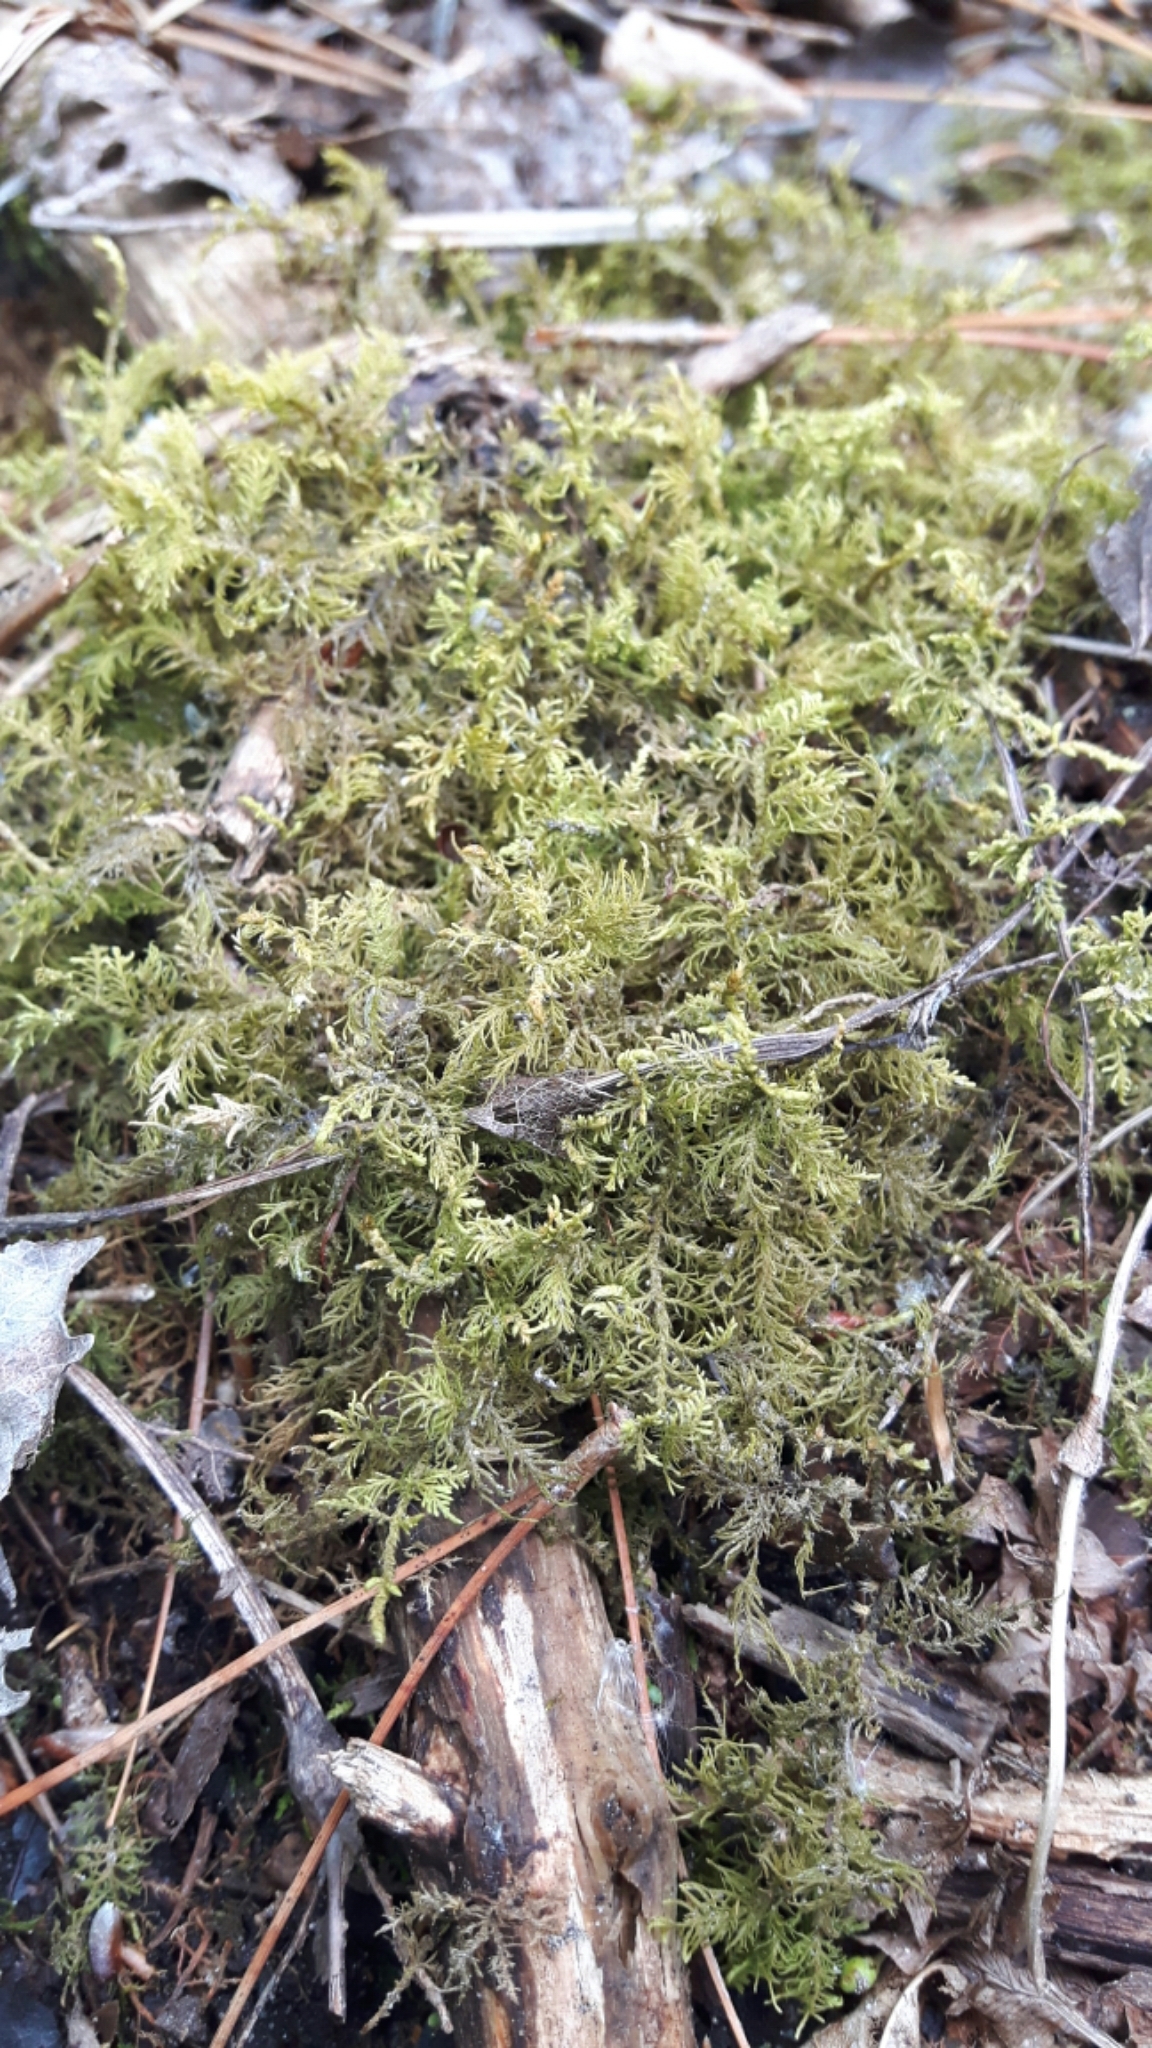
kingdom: Plantae
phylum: Bryophyta
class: Bryopsida
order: Hypnales
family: Hylocomiaceae
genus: Hylocomium
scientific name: Hylocomium splendens
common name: Stairstep moss
